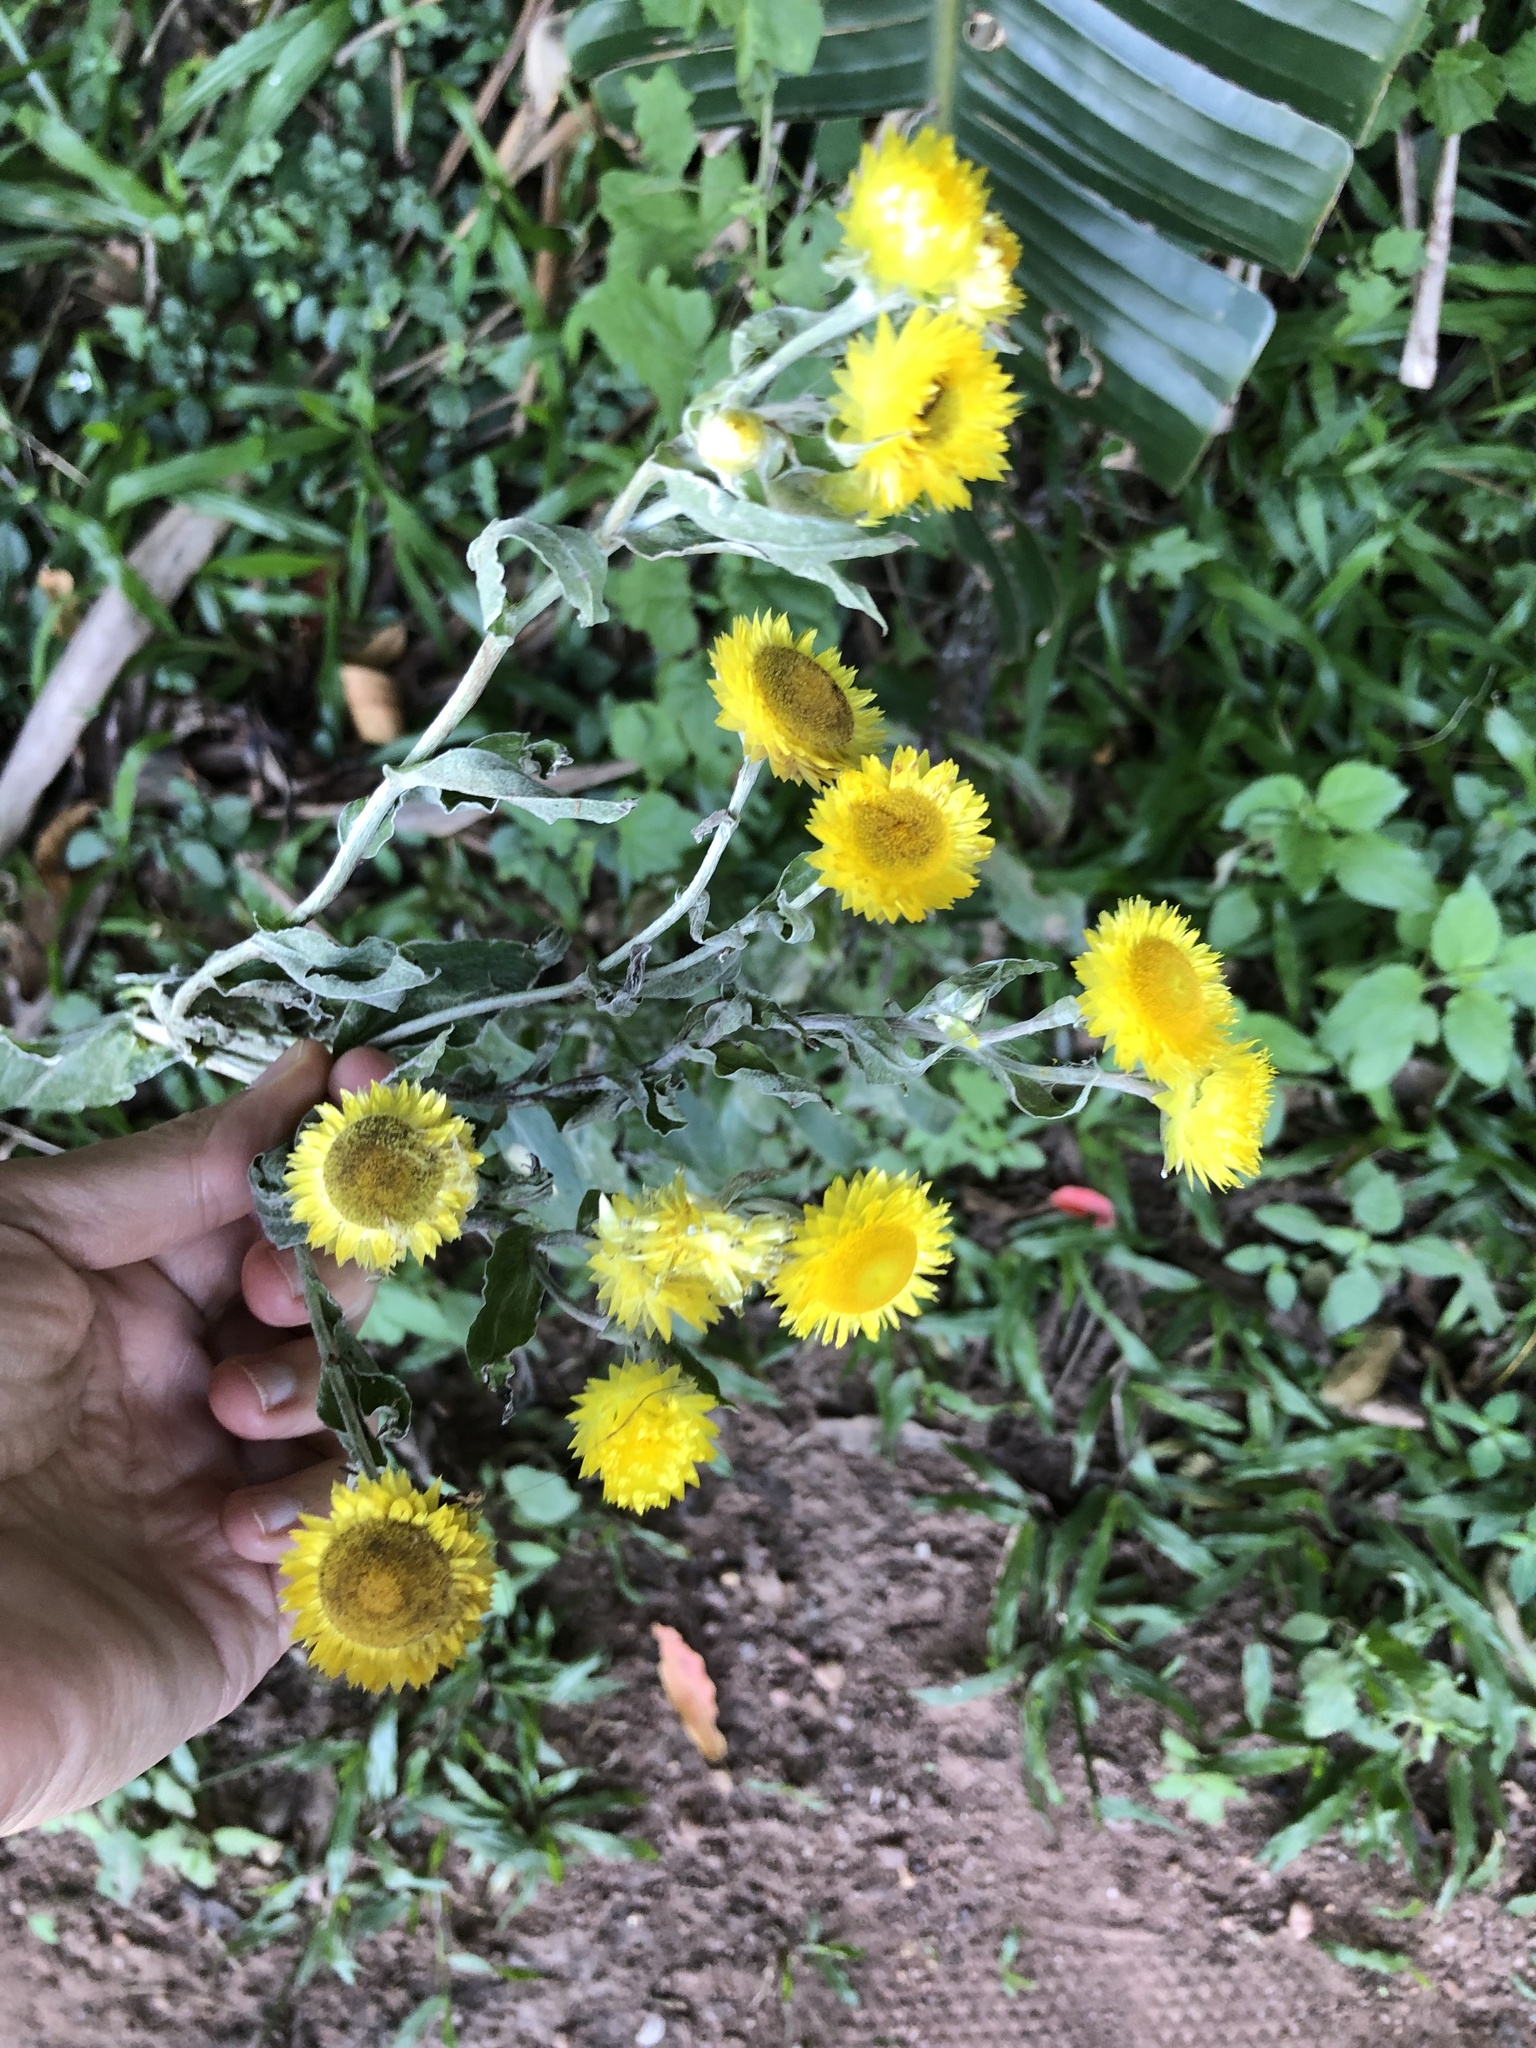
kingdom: Plantae
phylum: Tracheophyta
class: Magnoliopsida
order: Asterales
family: Asteraceae
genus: Helichrysum
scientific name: Helichrysum decorum
